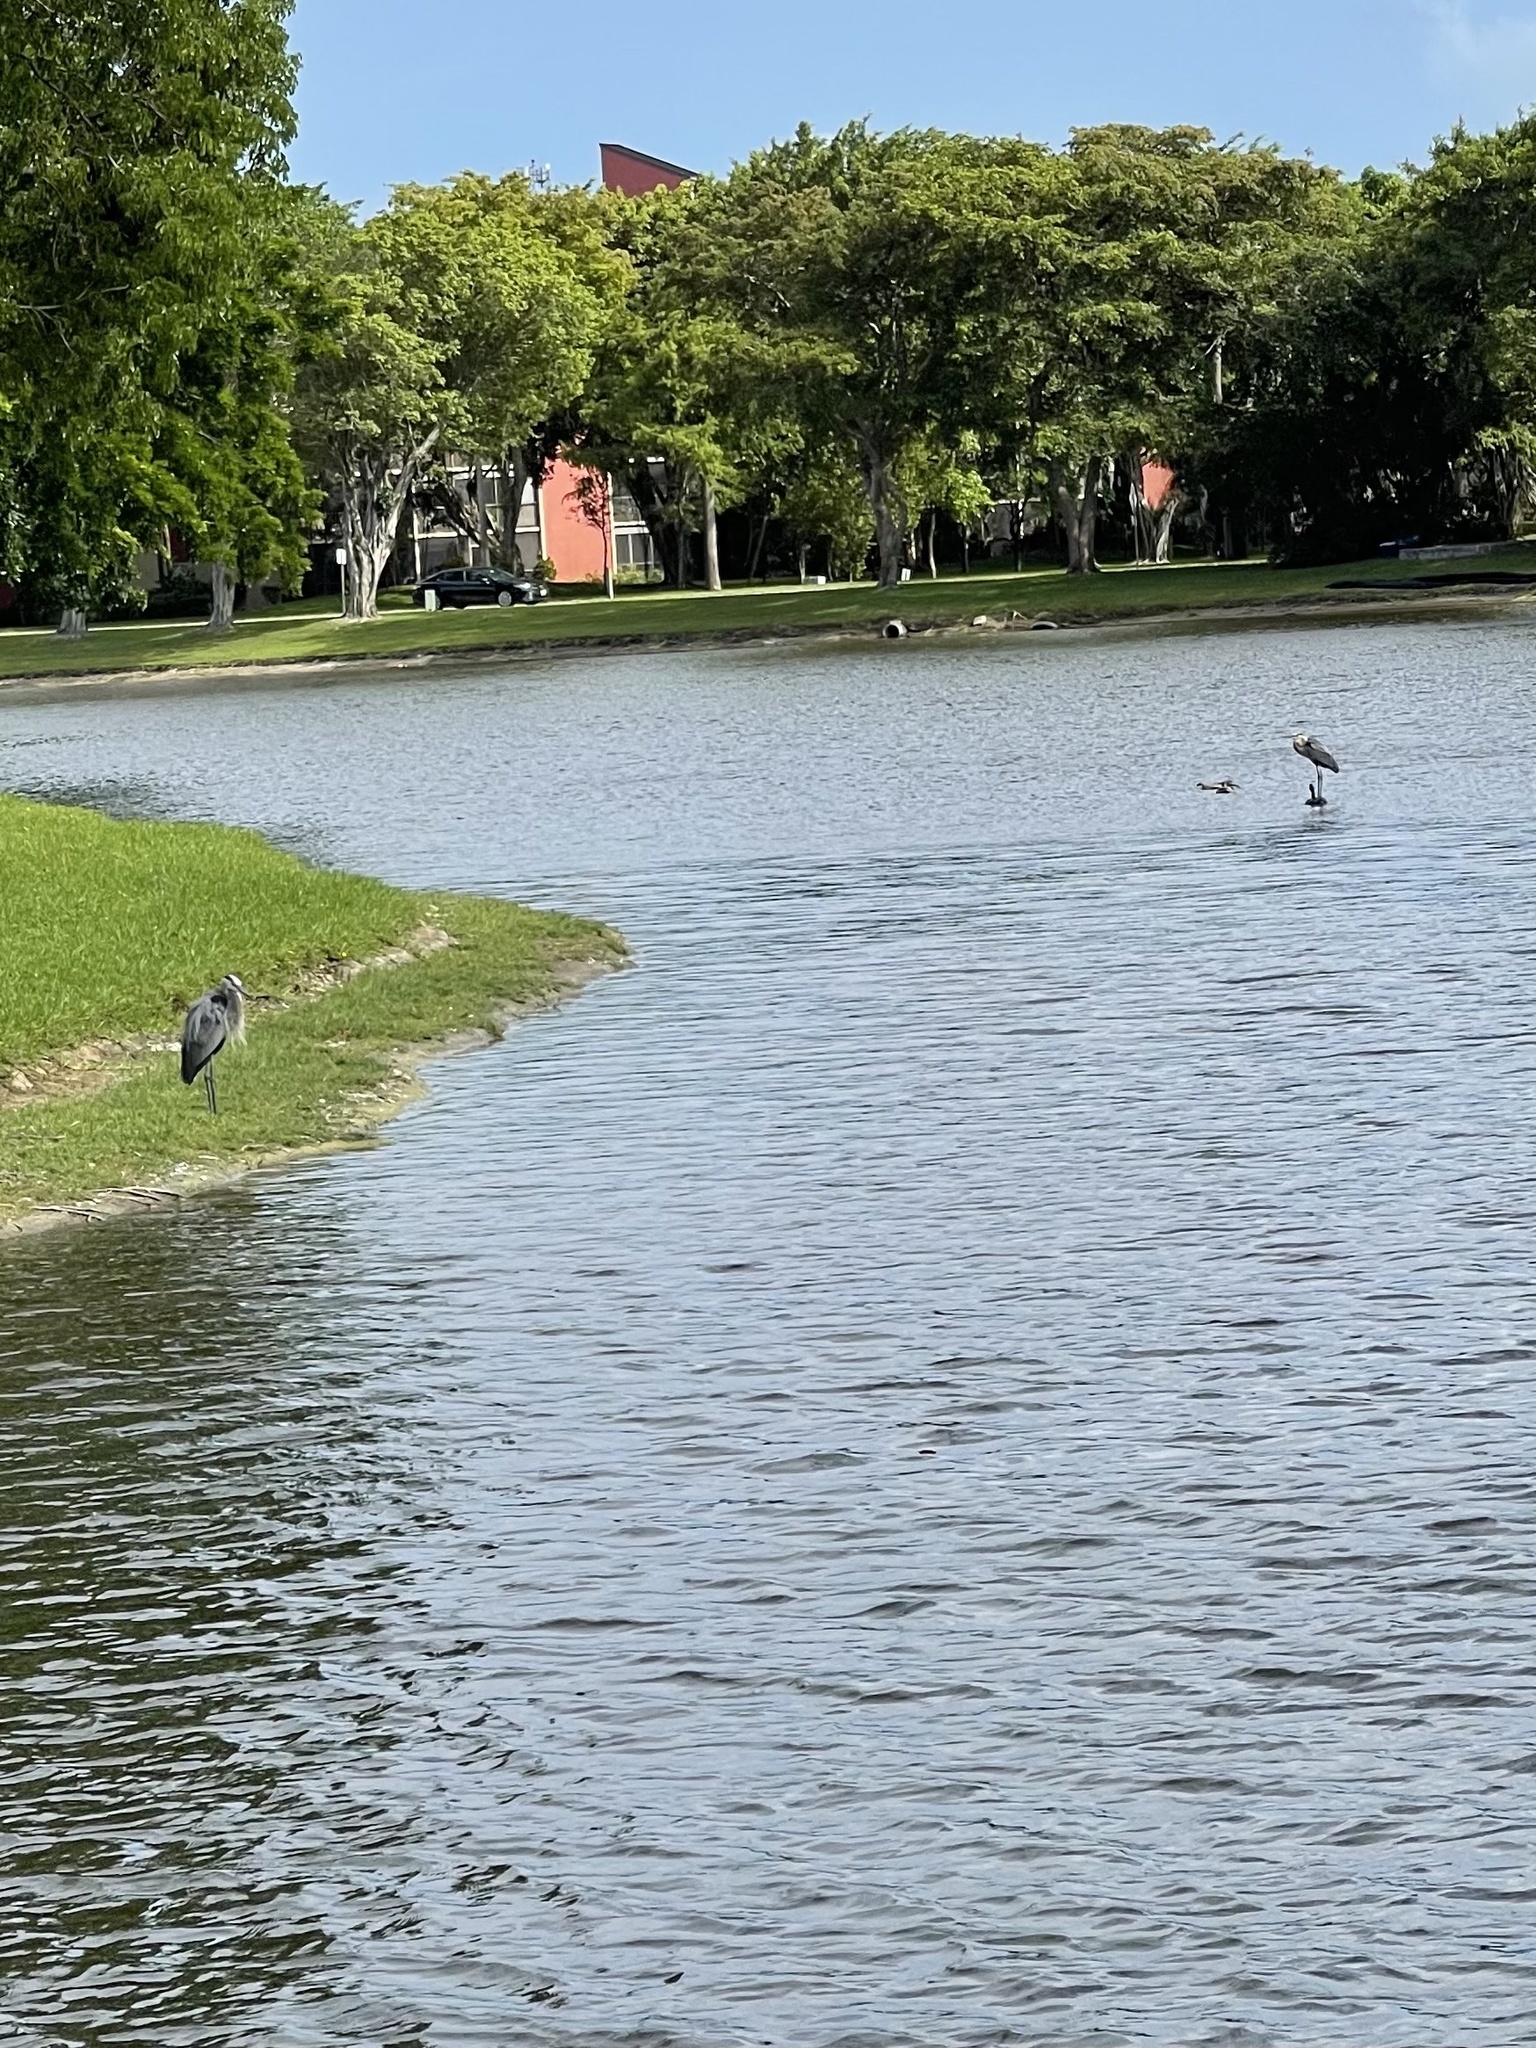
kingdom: Animalia
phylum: Chordata
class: Aves
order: Pelecaniformes
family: Ardeidae
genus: Ardea
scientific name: Ardea herodias
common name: Great blue heron
